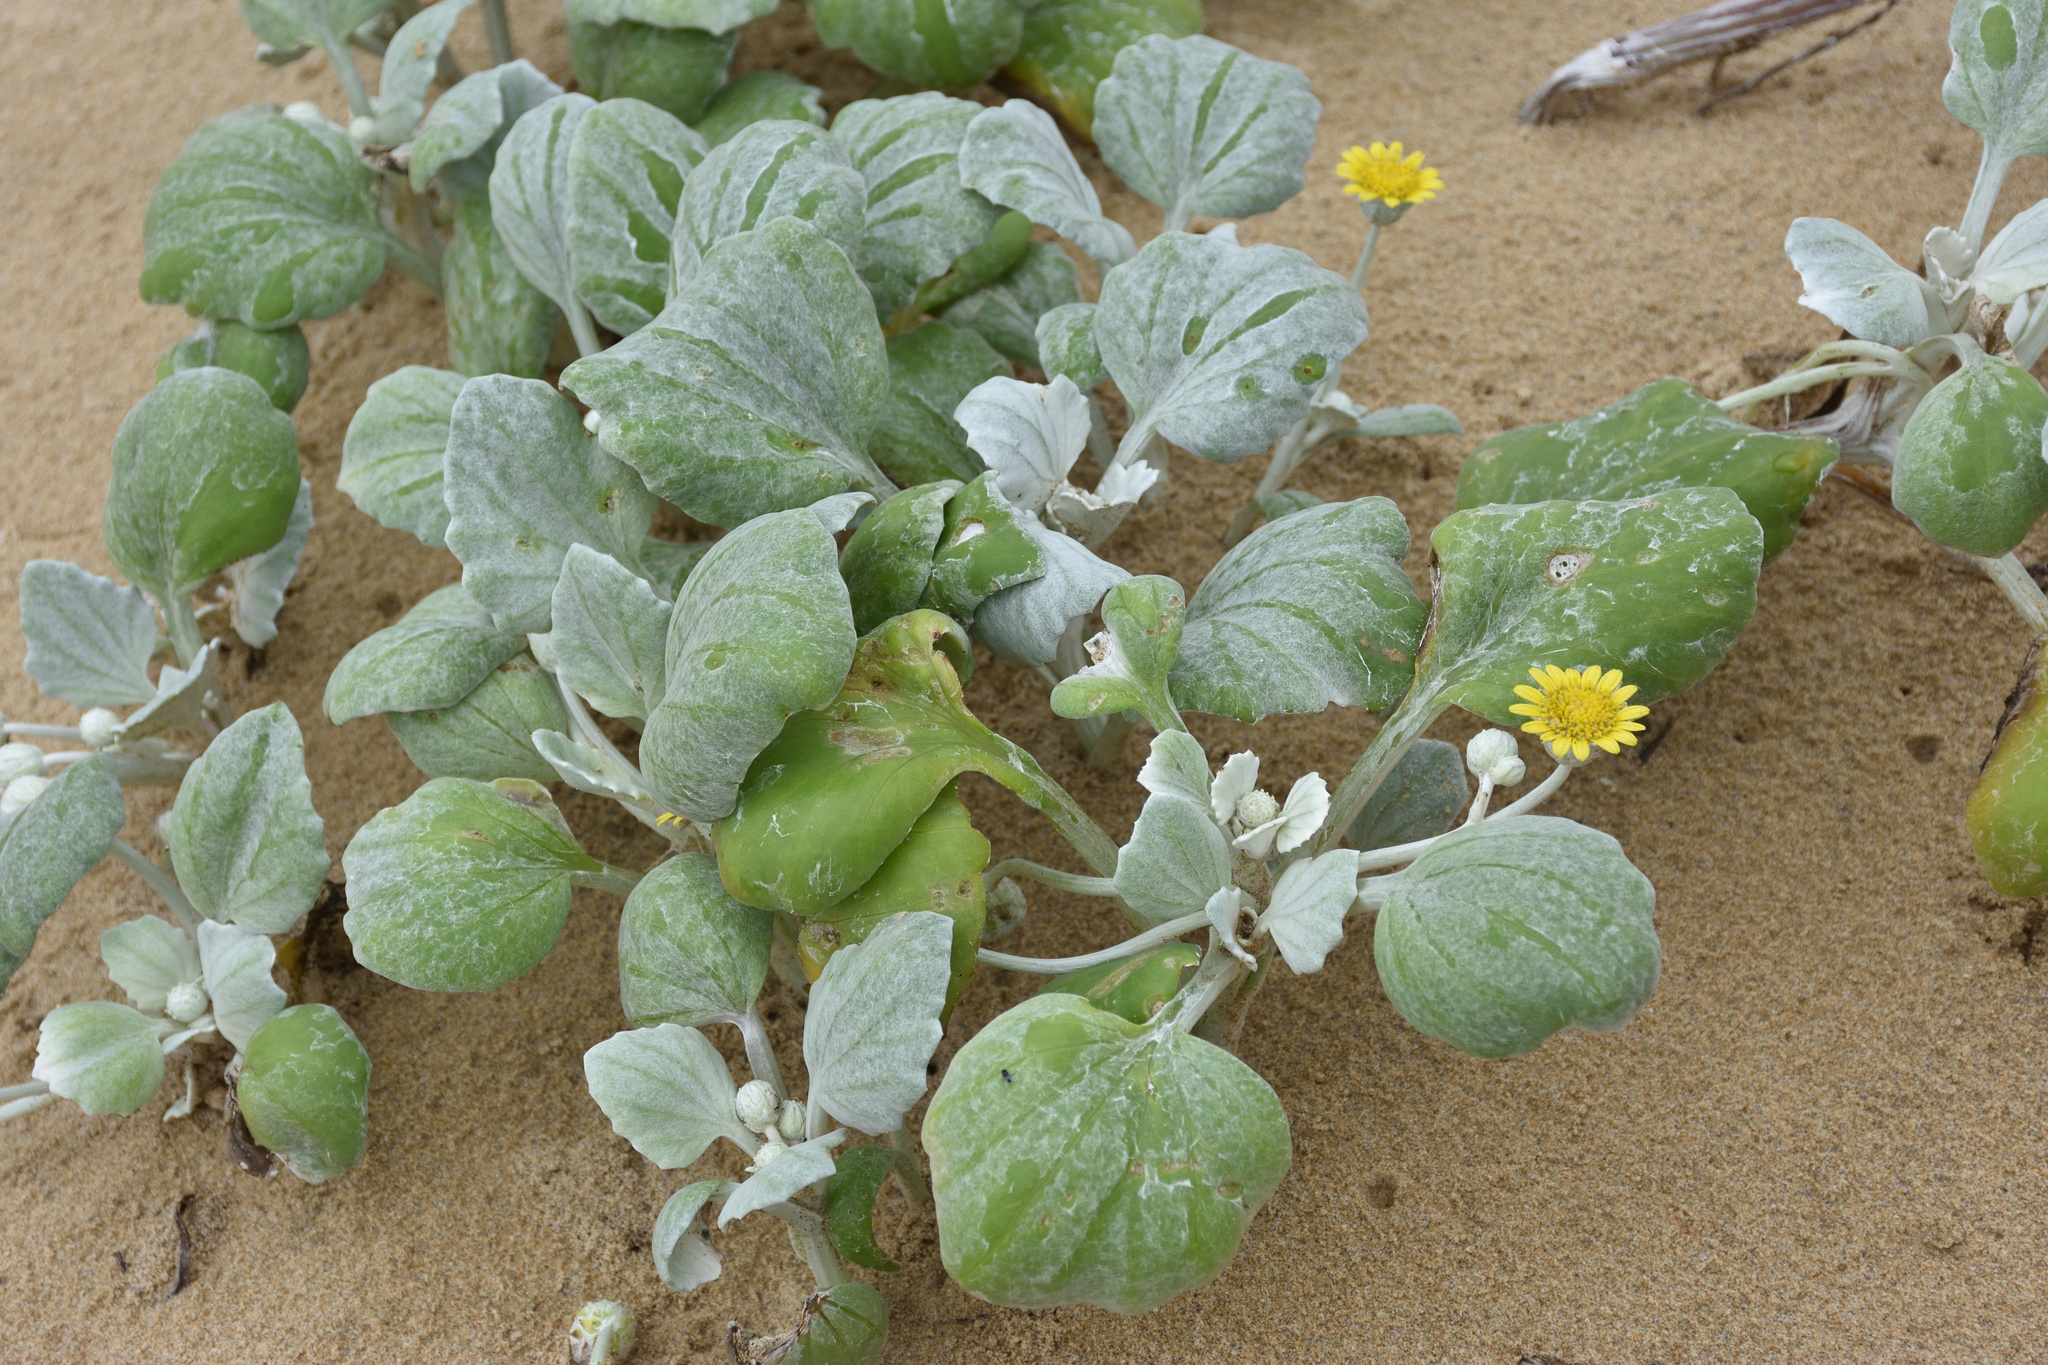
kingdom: Plantae
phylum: Tracheophyta
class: Magnoliopsida
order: Asterales
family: Asteraceae
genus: Arctotheca
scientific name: Arctotheca populifolia
